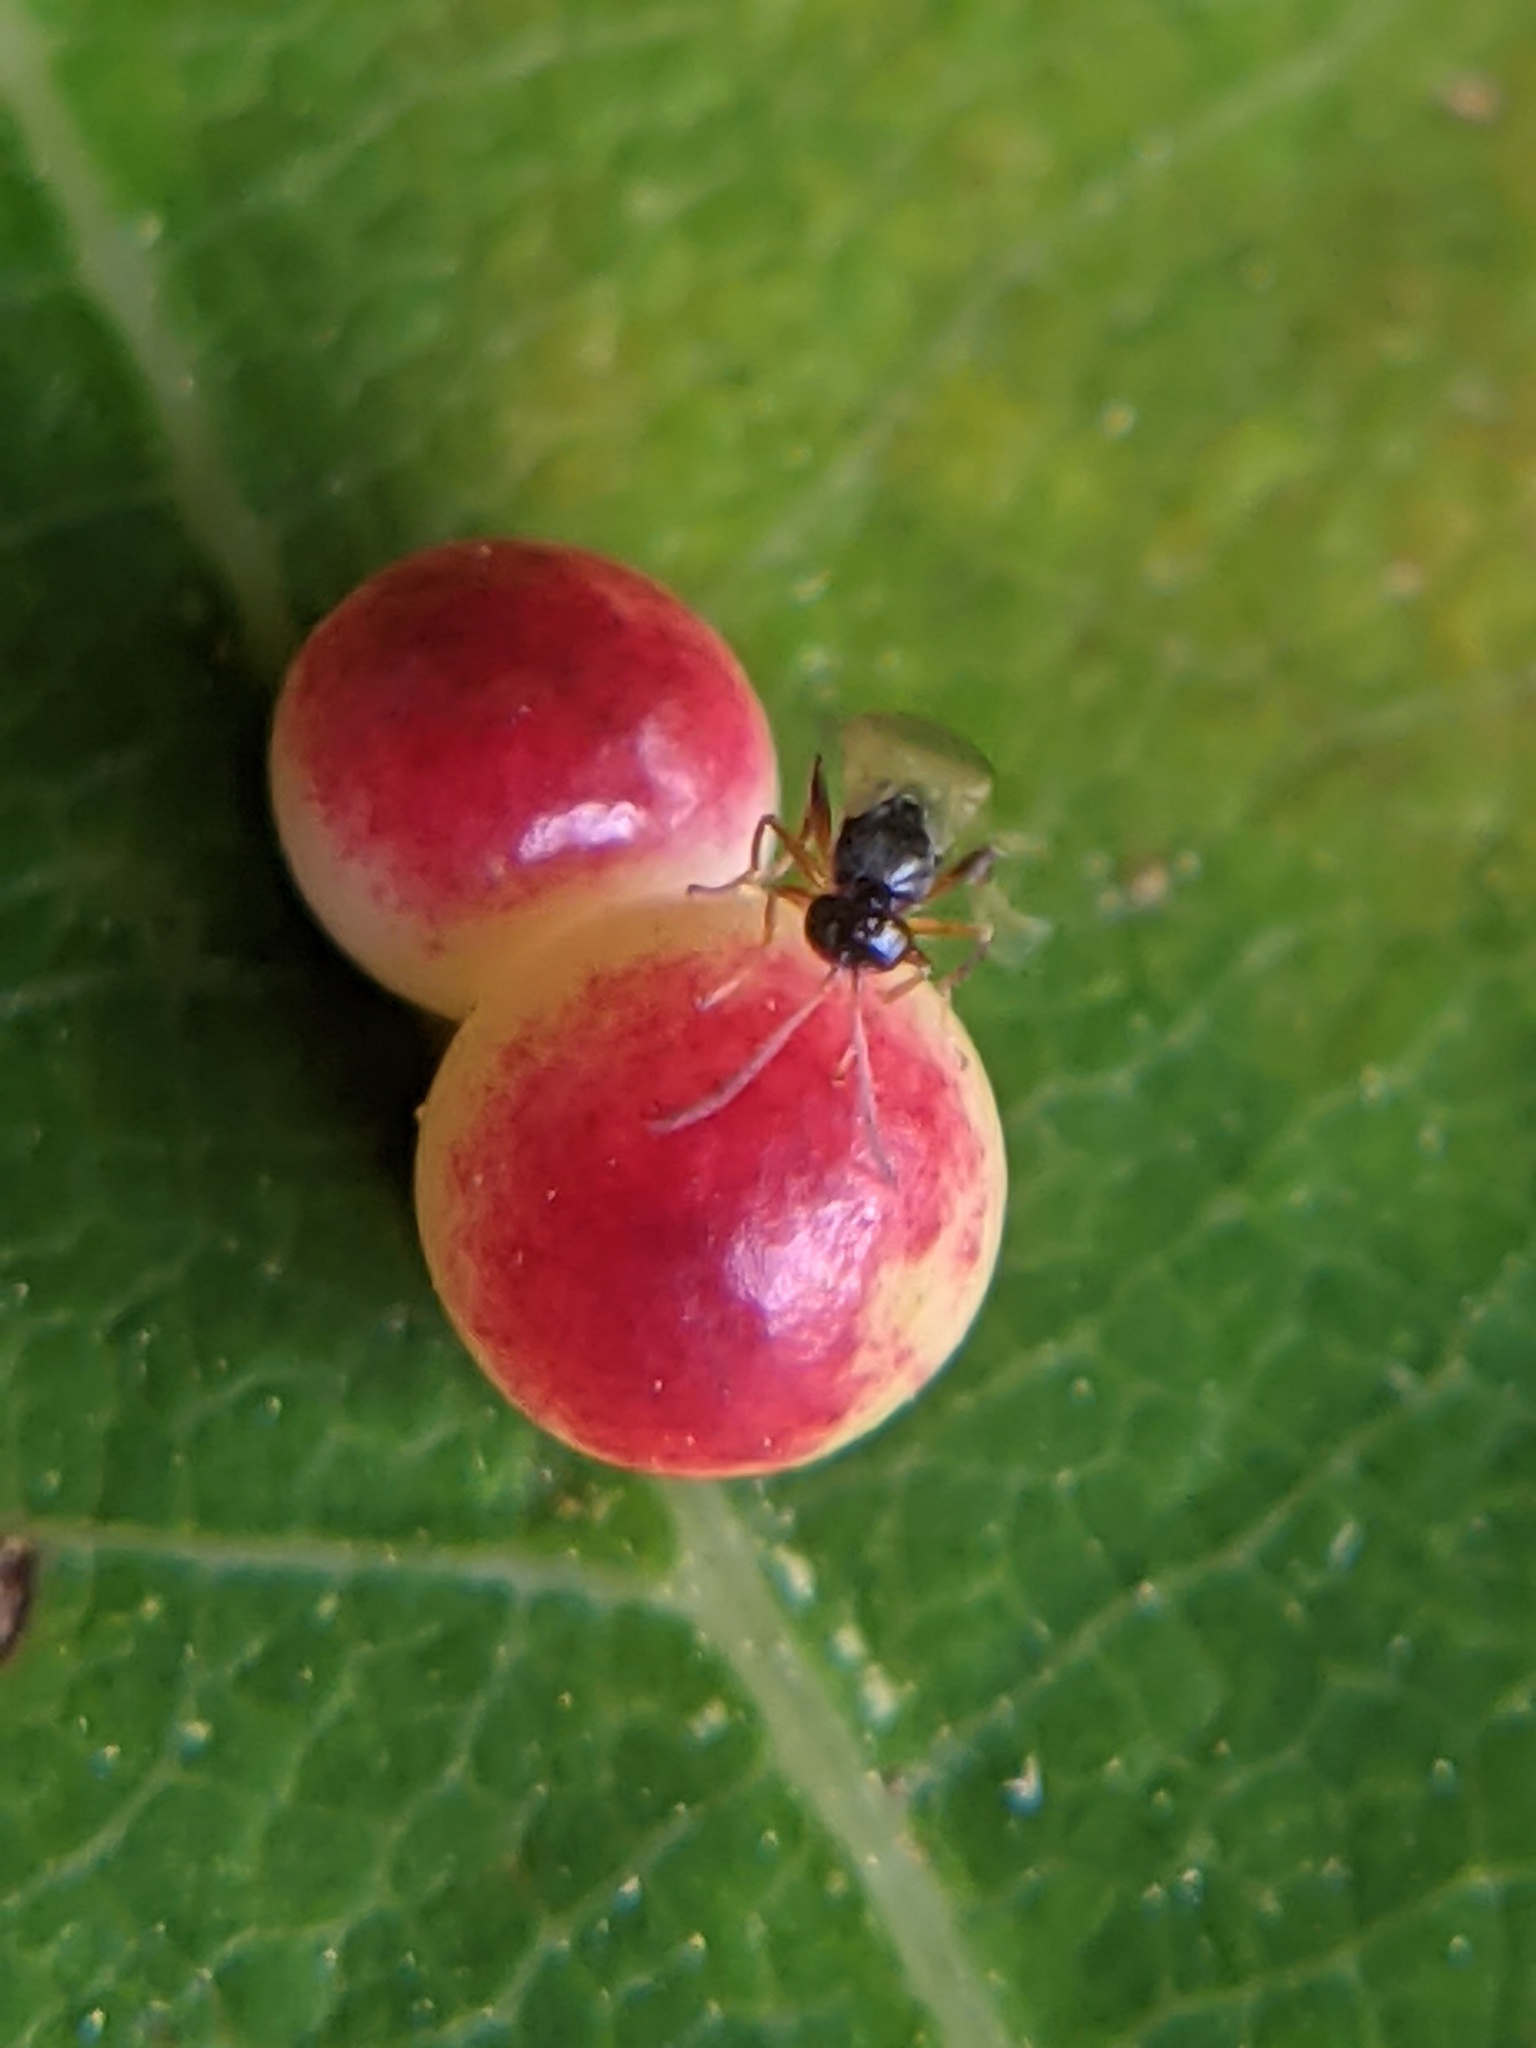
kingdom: Animalia
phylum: Arthropoda
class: Insecta
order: Hymenoptera
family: Cynipidae
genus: Zopheroteras
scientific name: Zopheroteras
